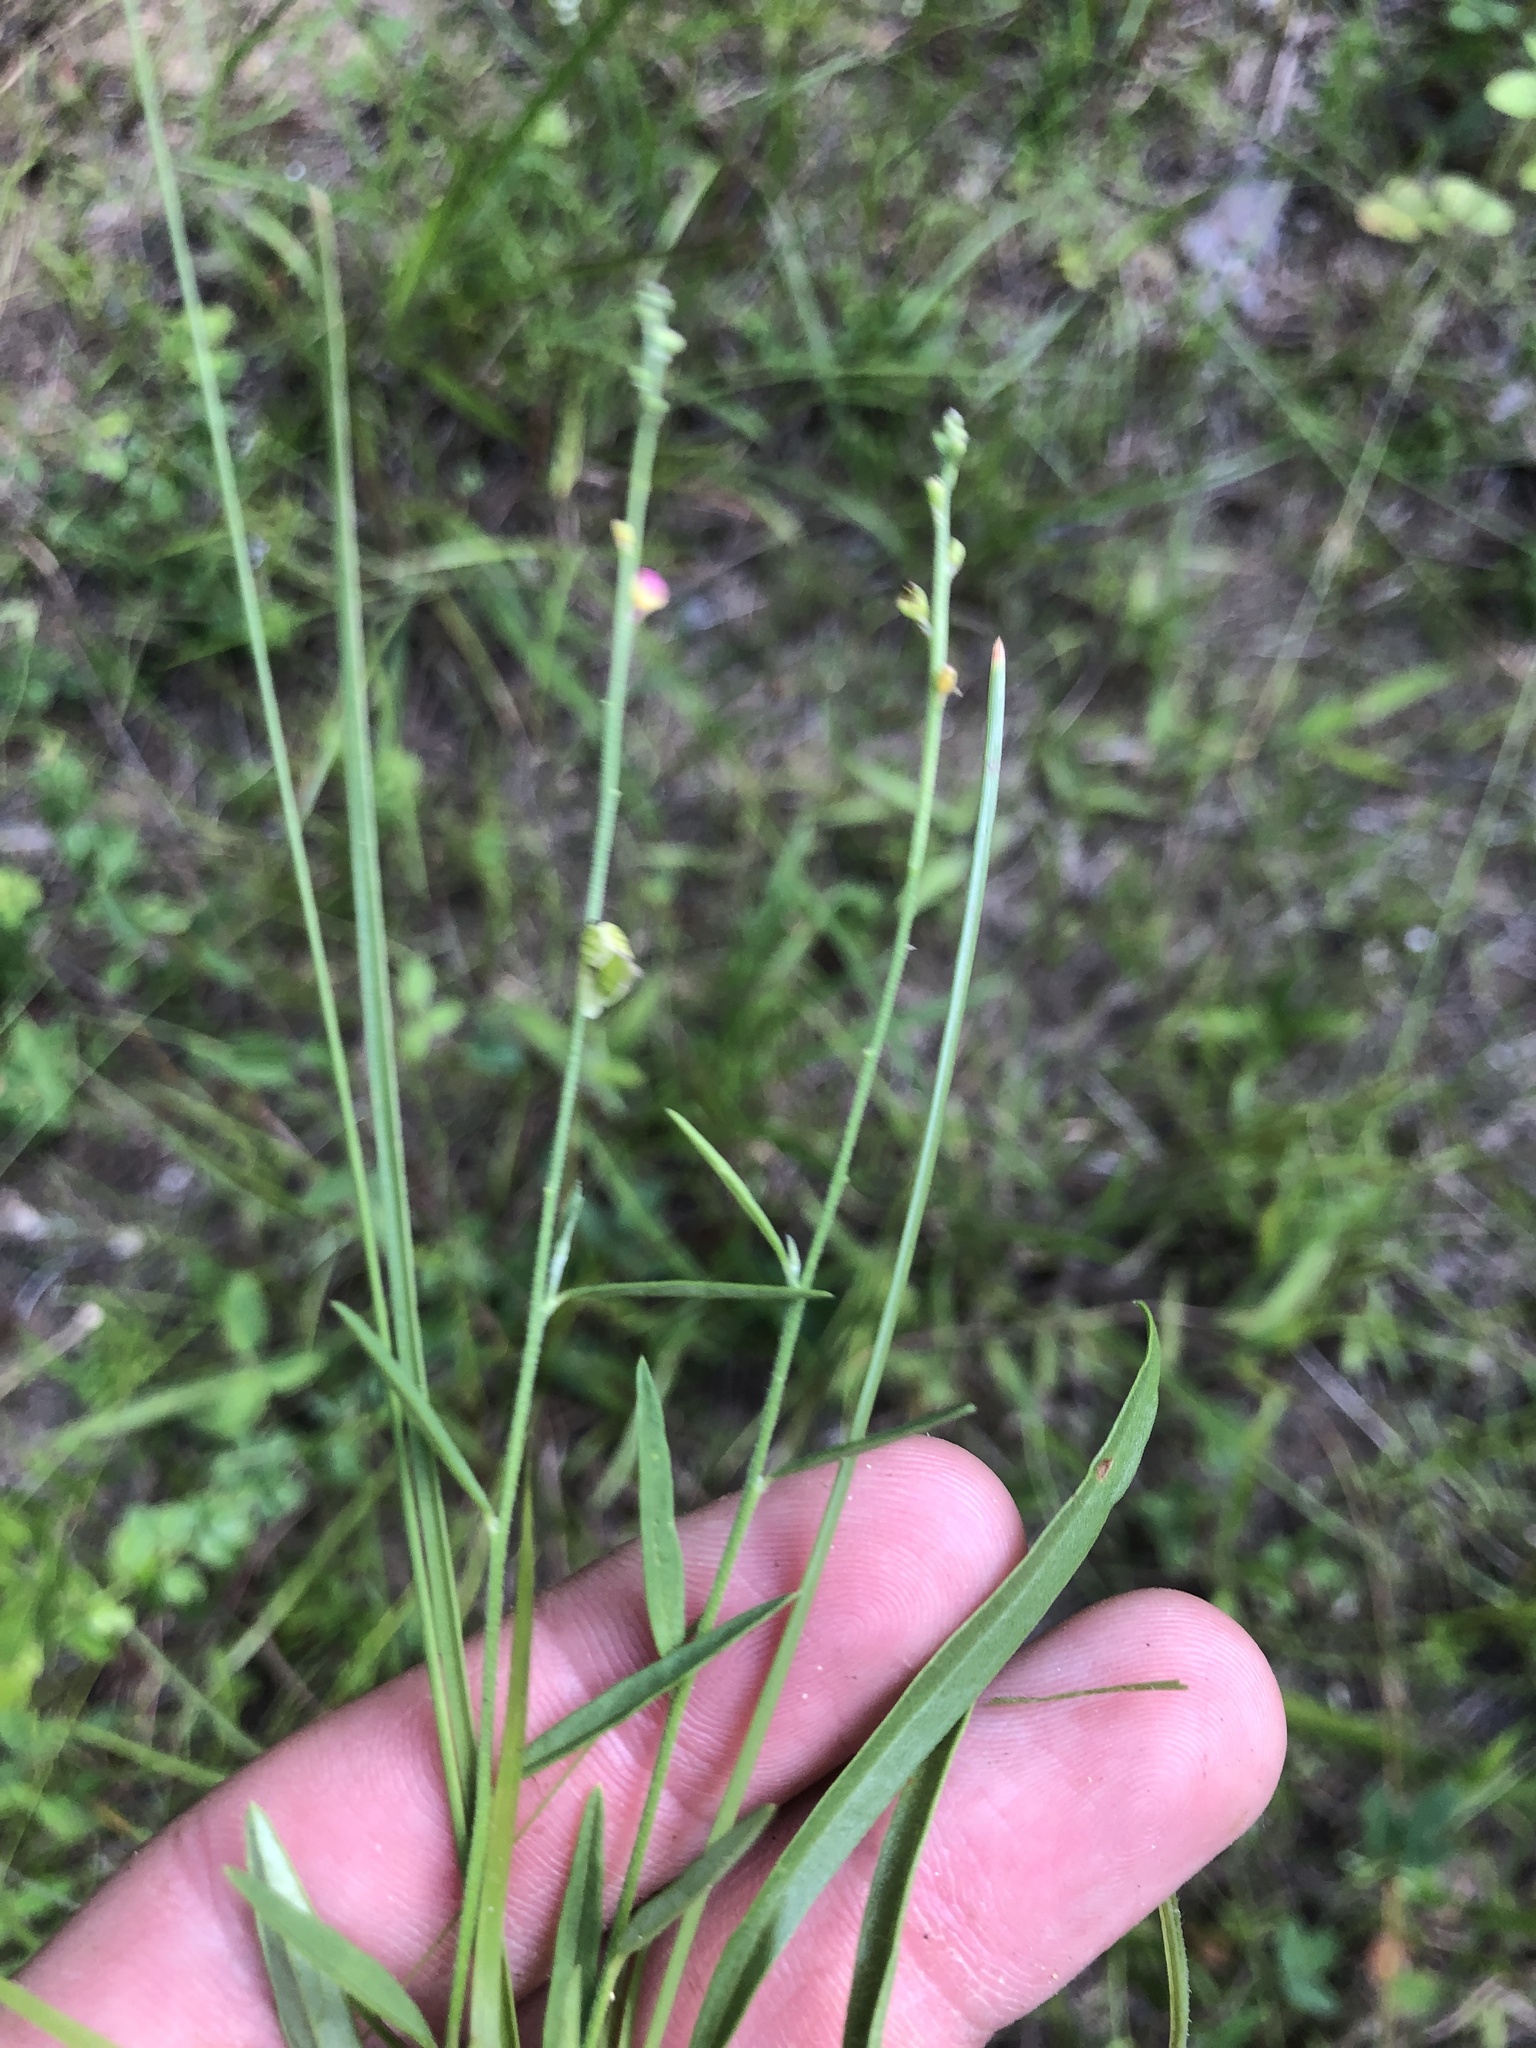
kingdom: Plantae
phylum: Tracheophyta
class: Magnoliopsida
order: Fabales
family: Polygalaceae
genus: Asemeia
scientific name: Asemeia grandiflora
